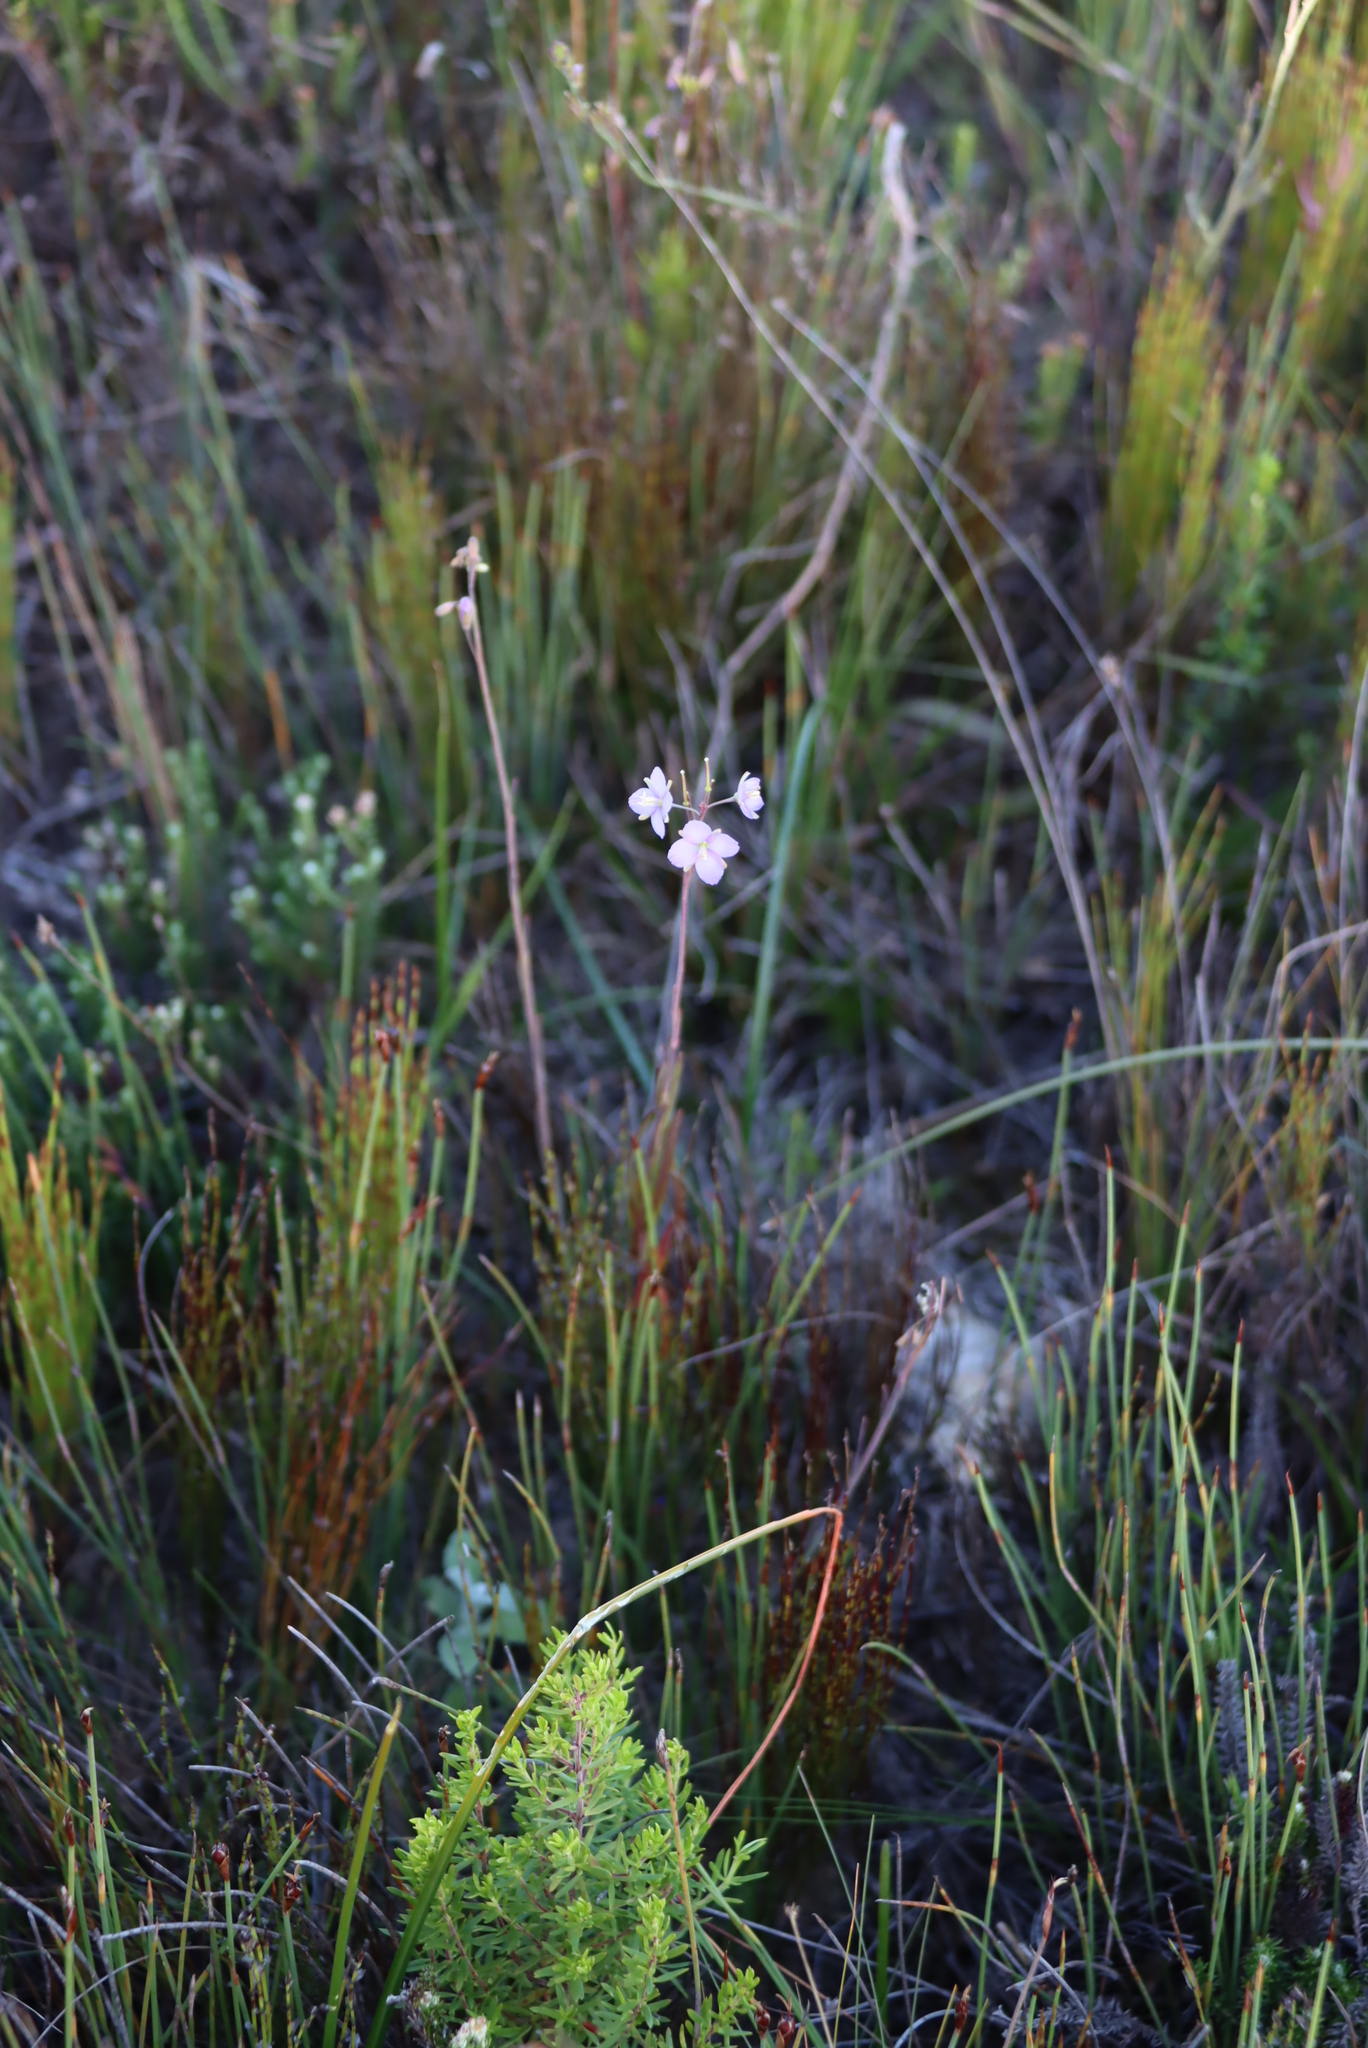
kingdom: Plantae
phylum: Tracheophyta
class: Magnoliopsida
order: Brassicales
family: Brassicaceae
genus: Heliophila
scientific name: Heliophila linearis
